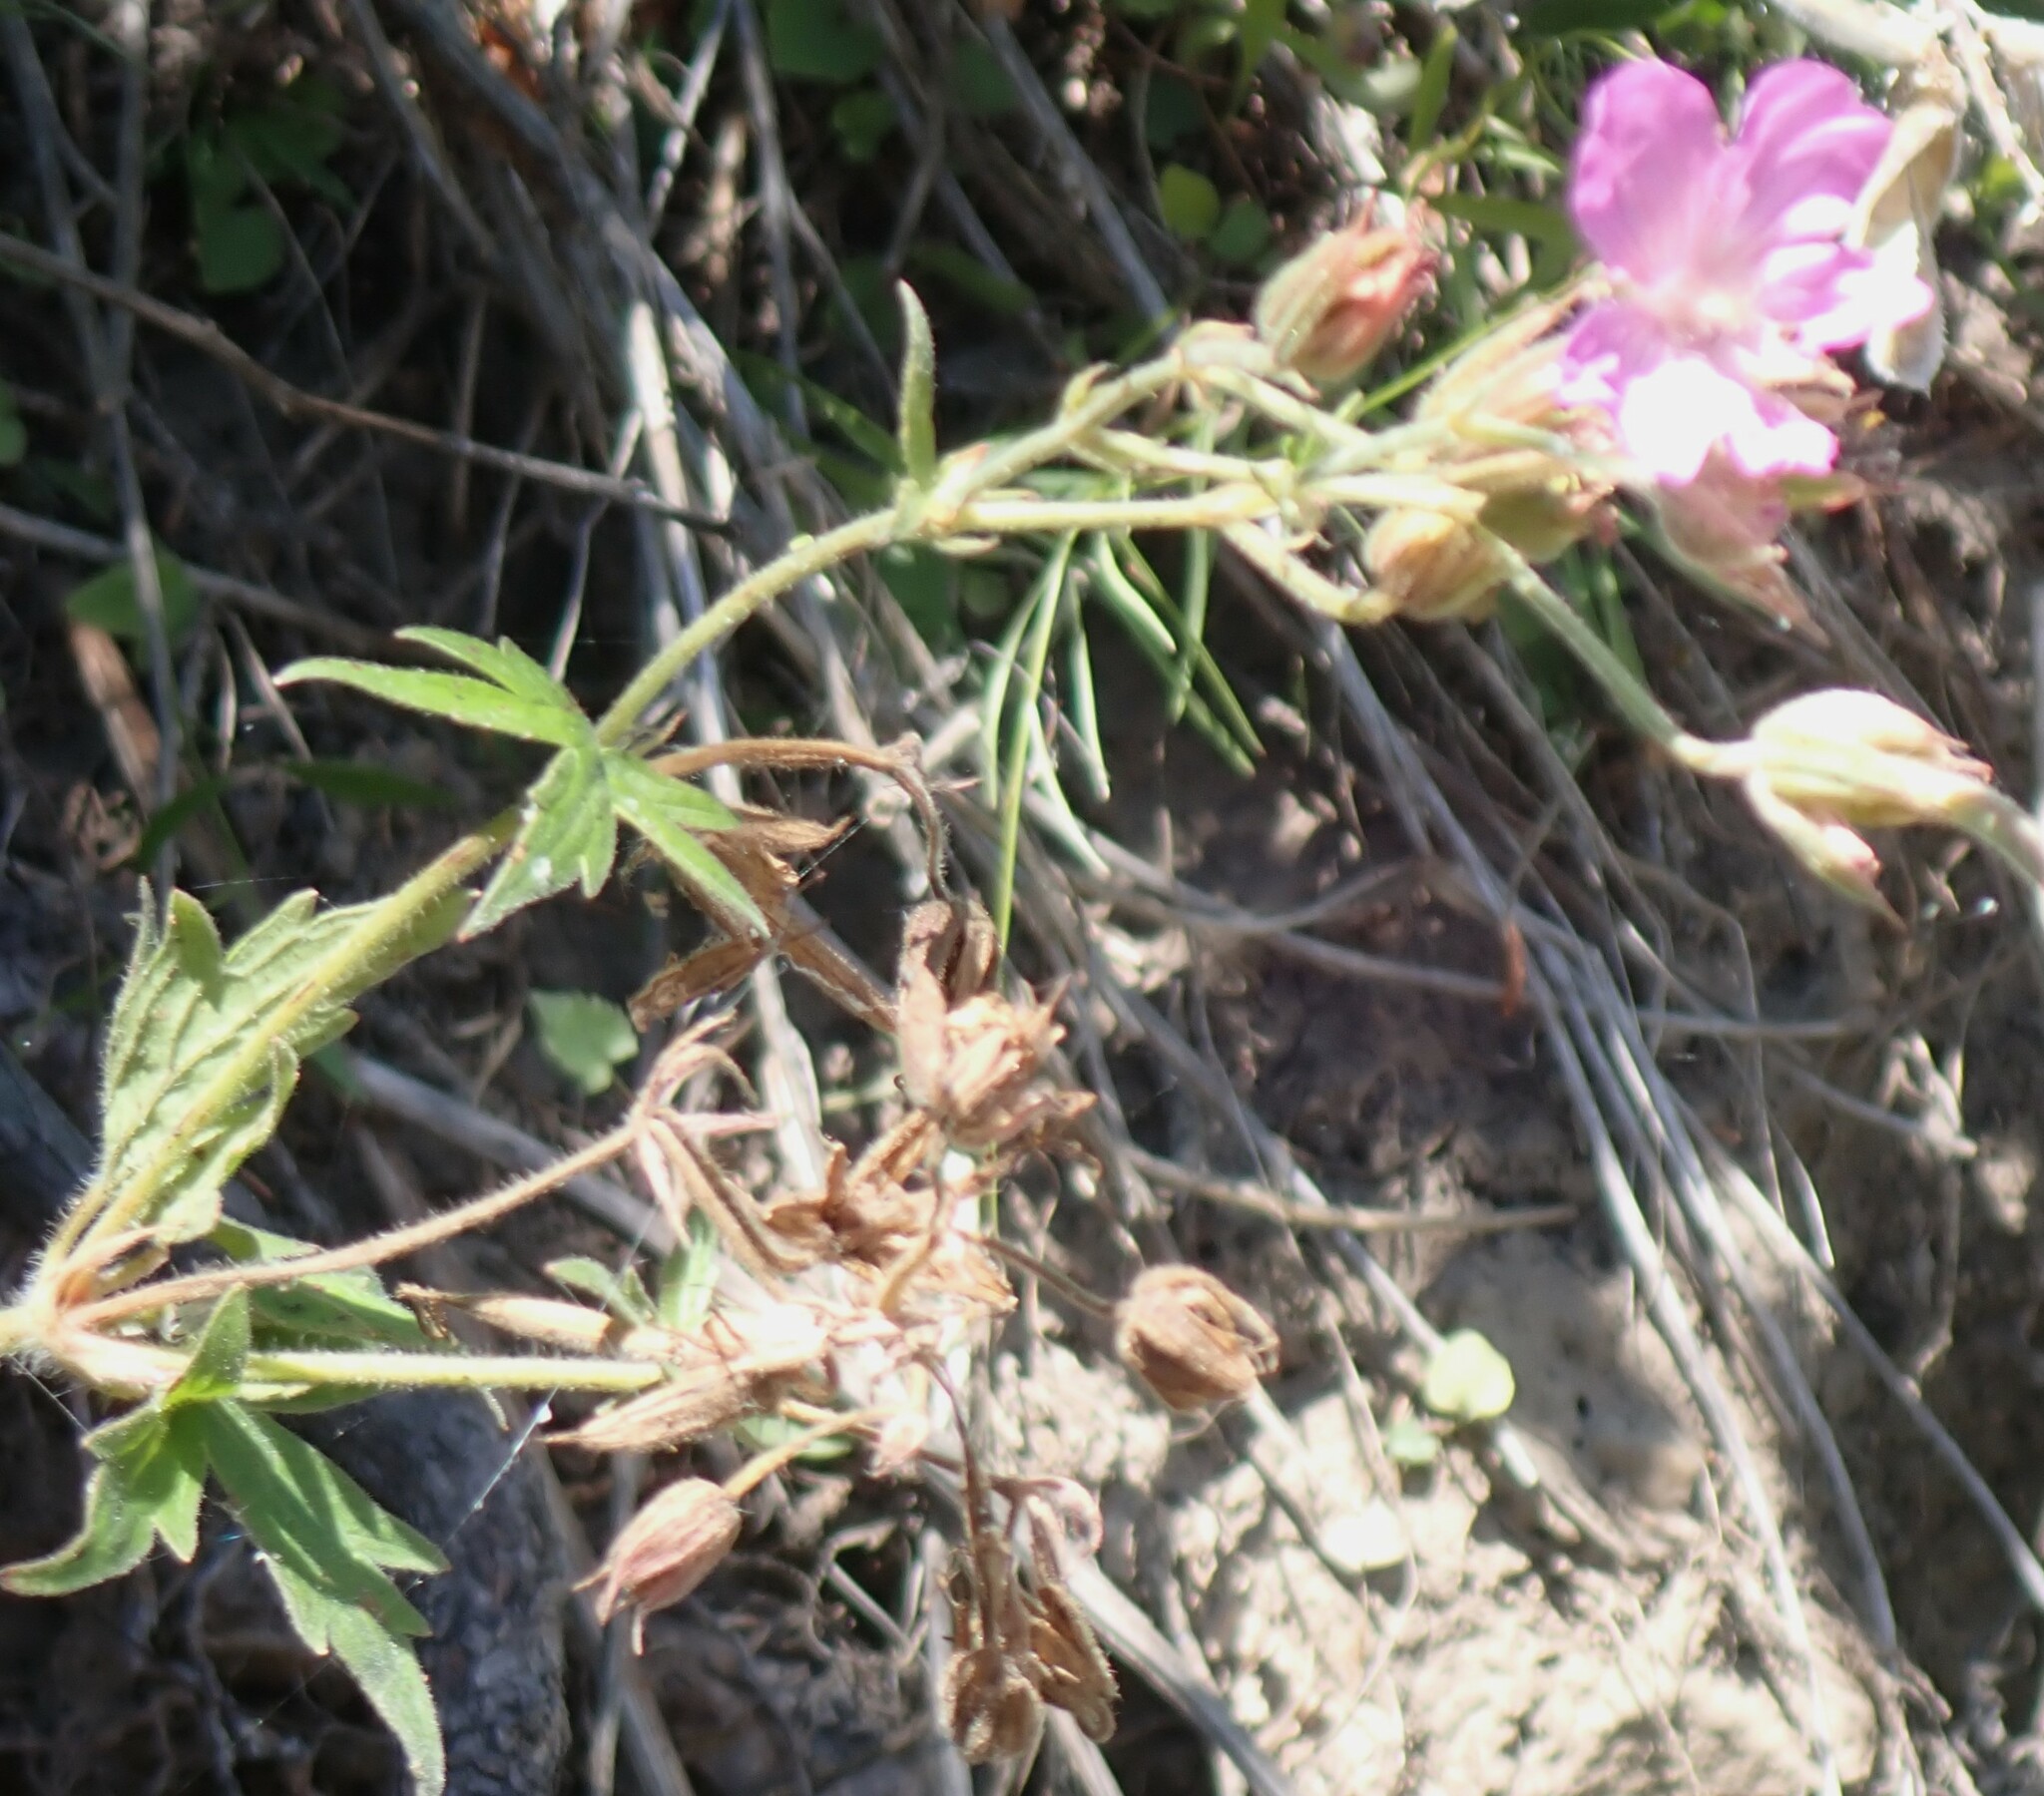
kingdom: Plantae
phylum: Tracheophyta
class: Magnoliopsida
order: Geraniales
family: Geraniaceae
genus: Geranium
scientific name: Geranium viscosissimum
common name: Purple geranium
